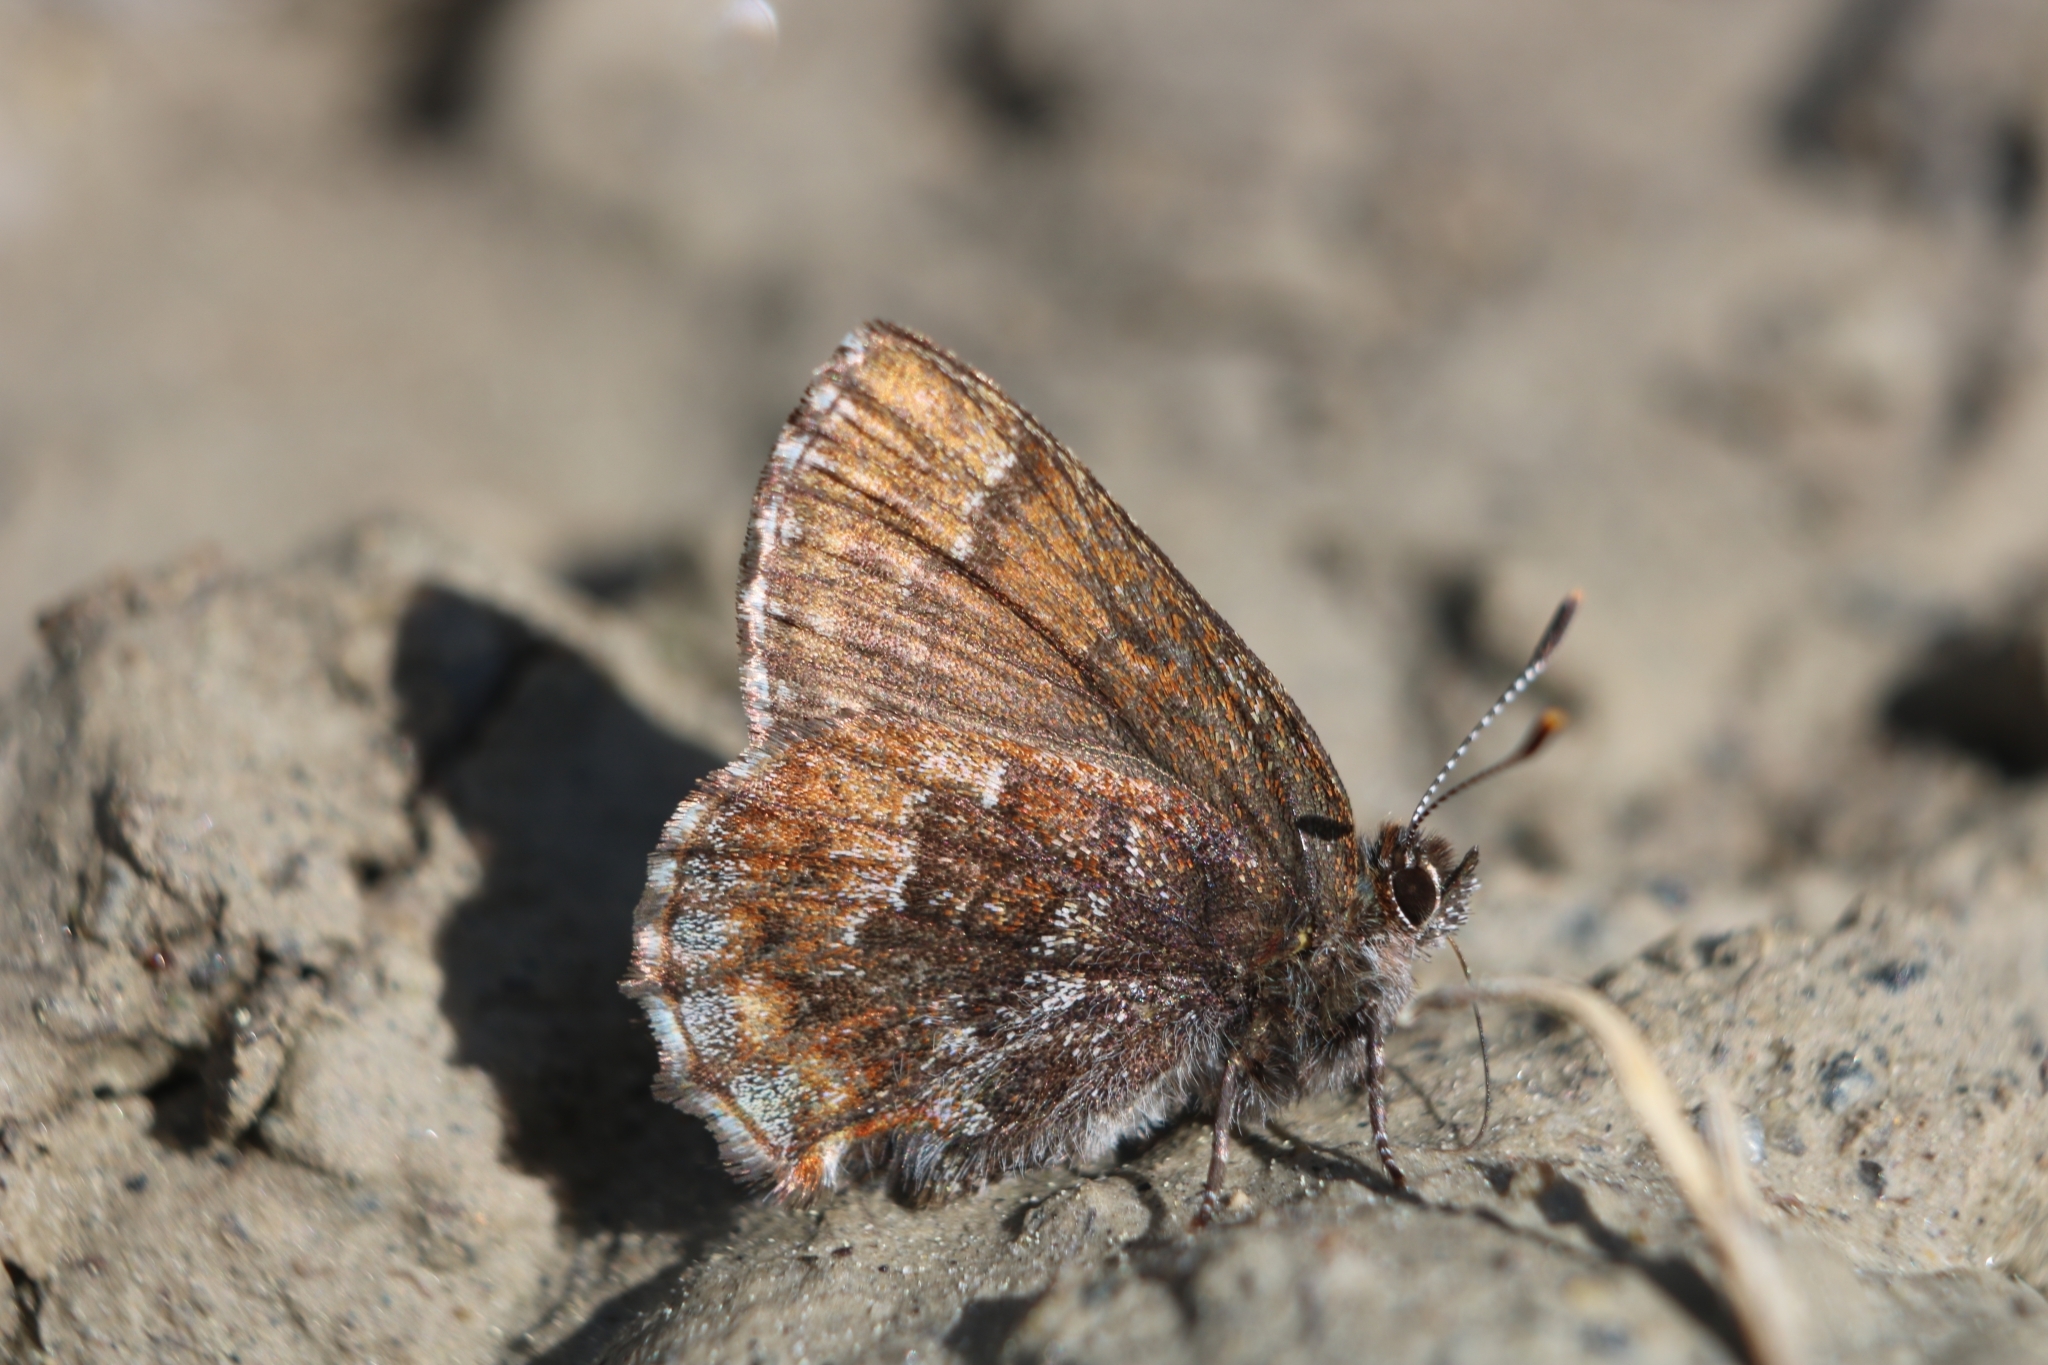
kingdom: Animalia
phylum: Arthropoda
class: Insecta
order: Lepidoptera
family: Lycaenidae
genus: Incisalia
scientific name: Incisalia niphon
